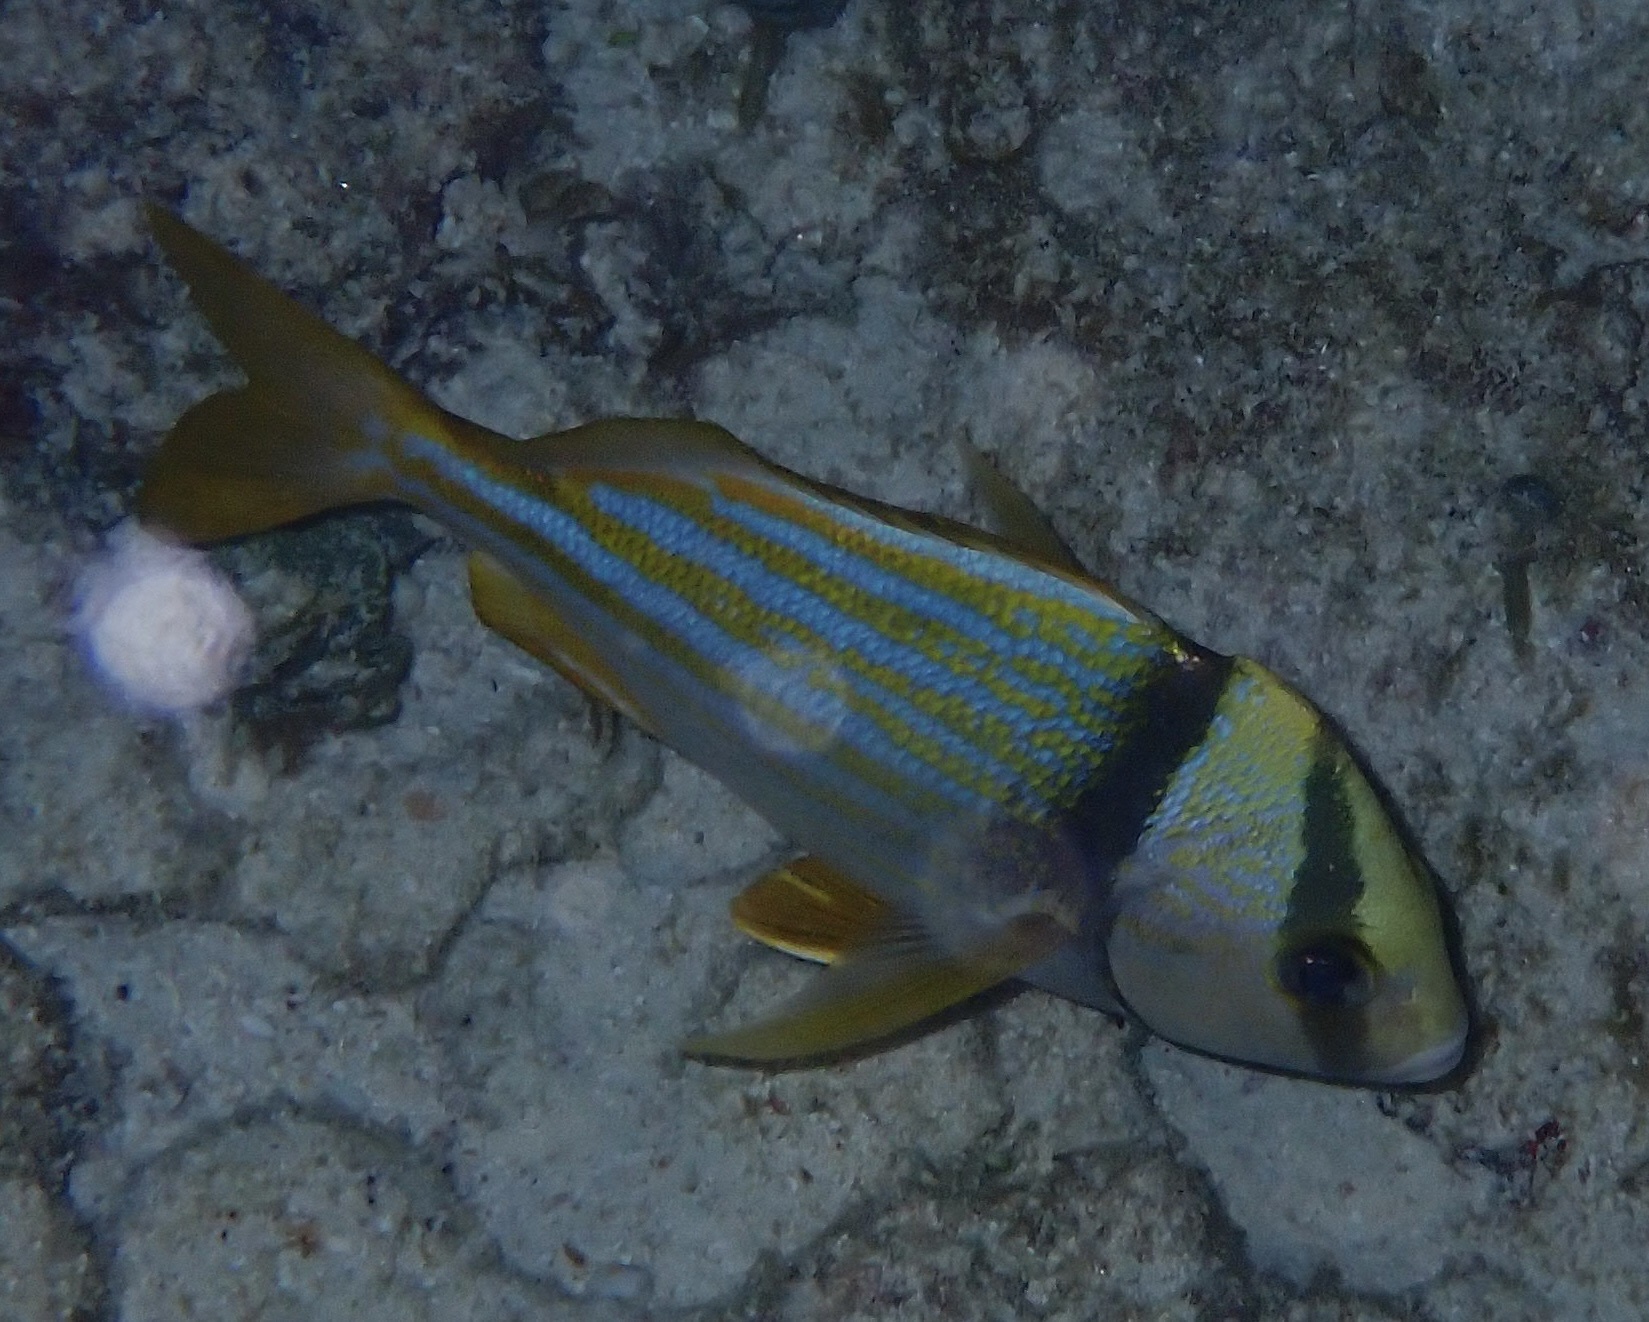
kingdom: Animalia
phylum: Chordata
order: Perciformes
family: Haemulidae
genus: Anisotremus
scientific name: Anisotremus virginicus
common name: Porkfish
